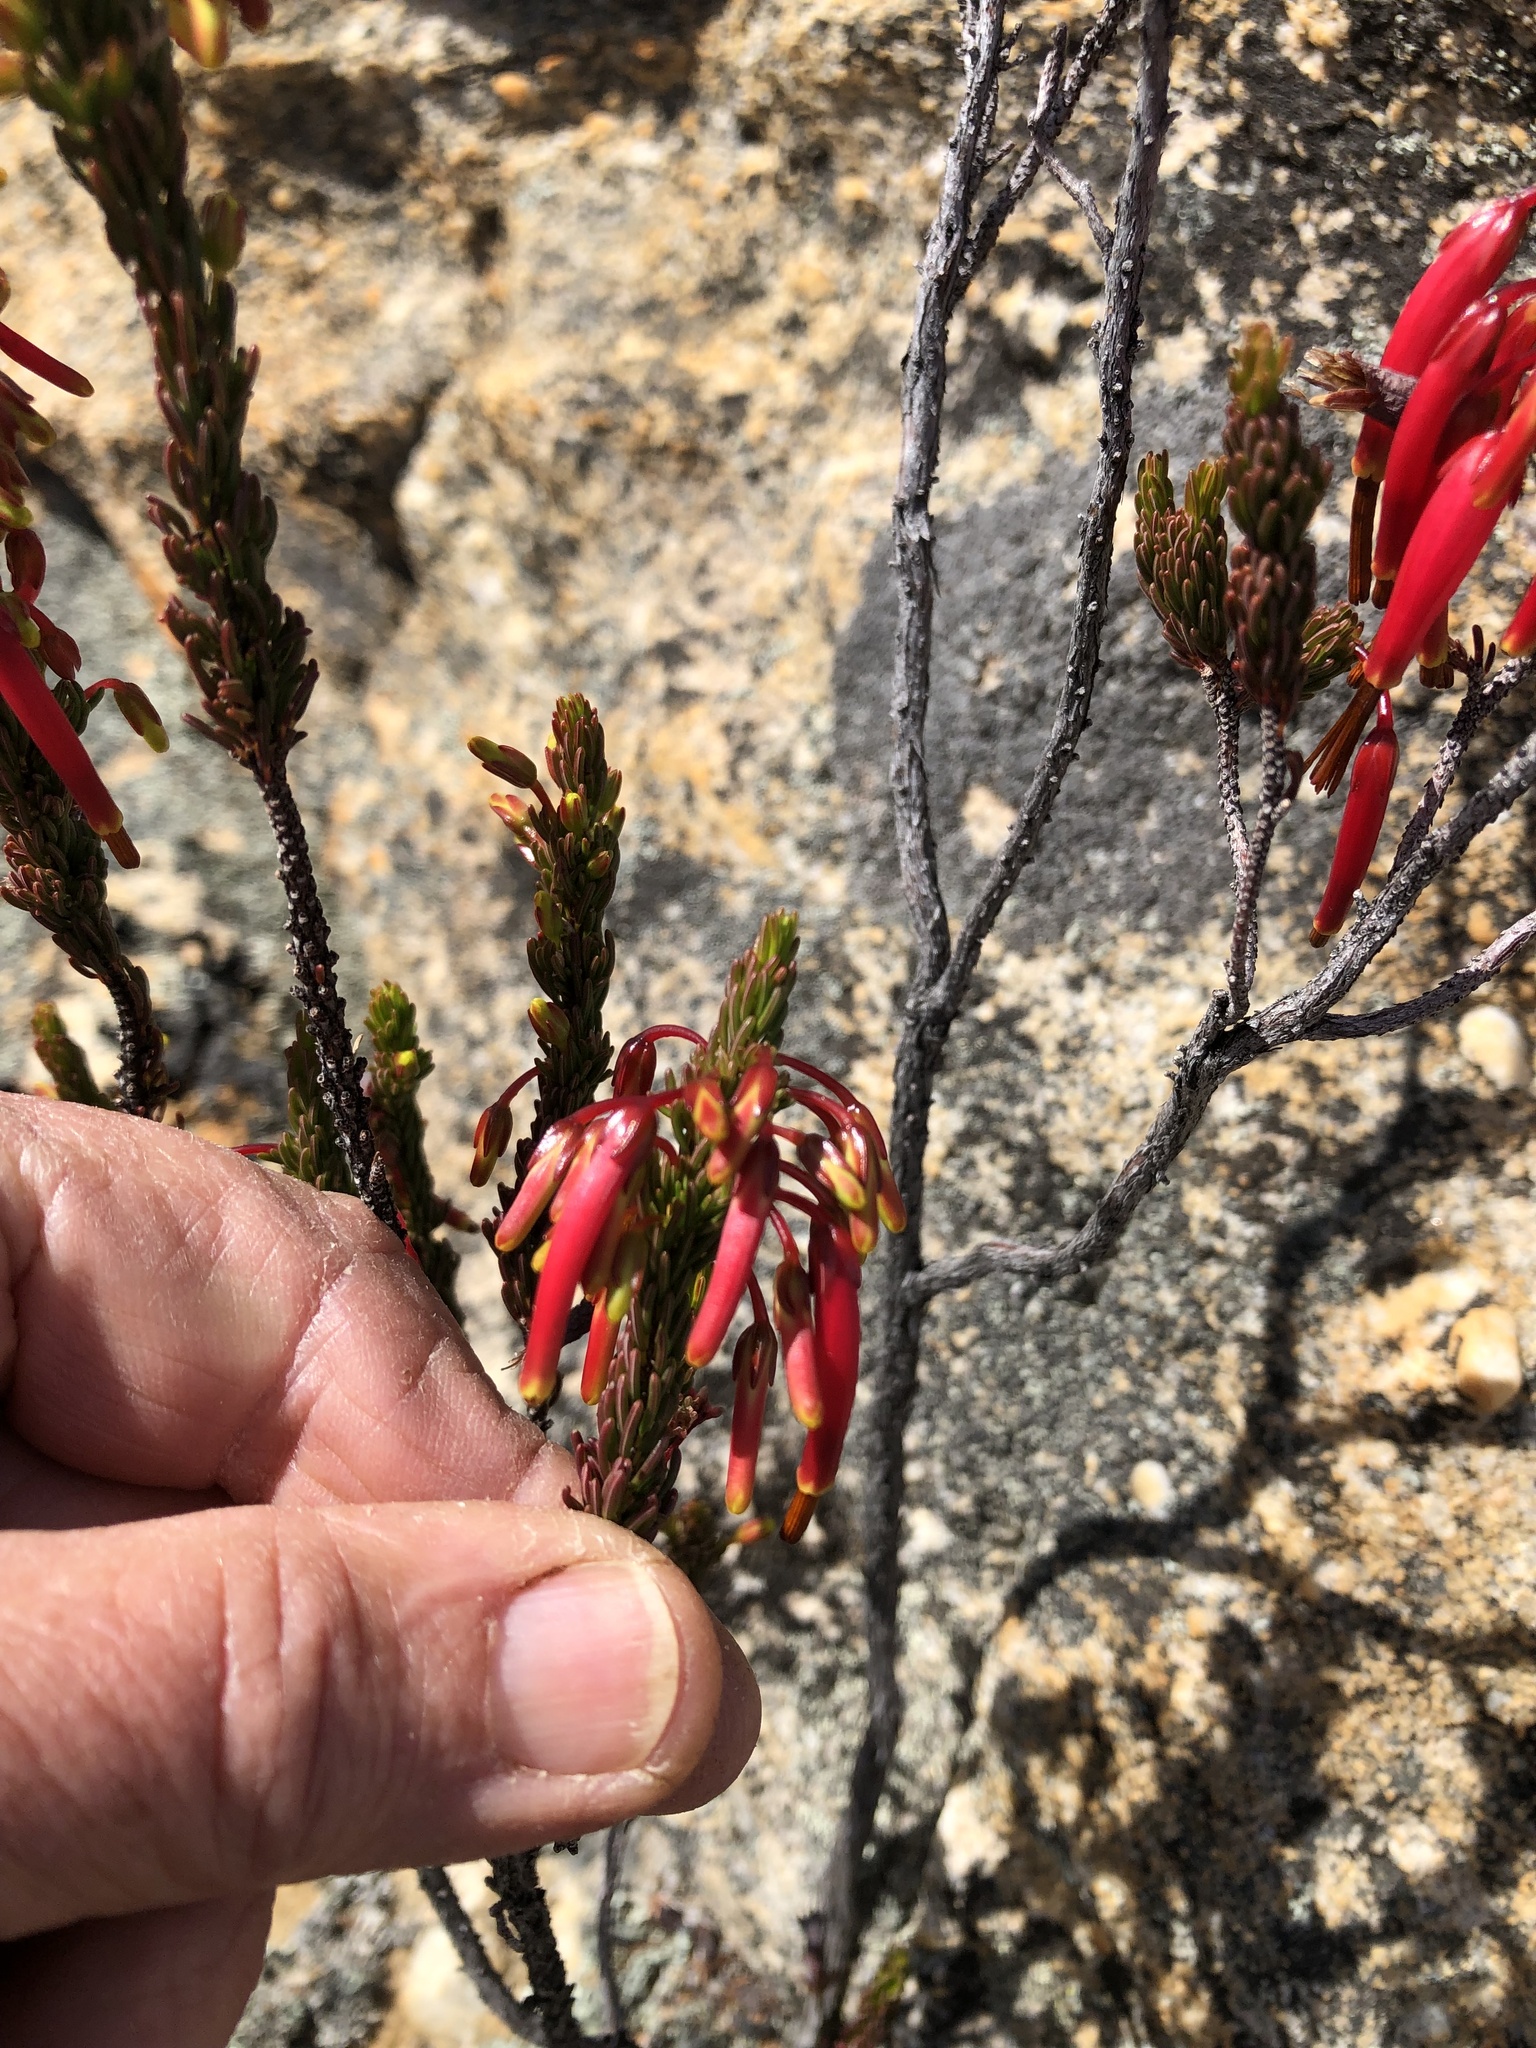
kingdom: Plantae
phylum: Tracheophyta
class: Magnoliopsida
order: Ericales
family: Ericaceae
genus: Erica
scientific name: Erica plukenetii
